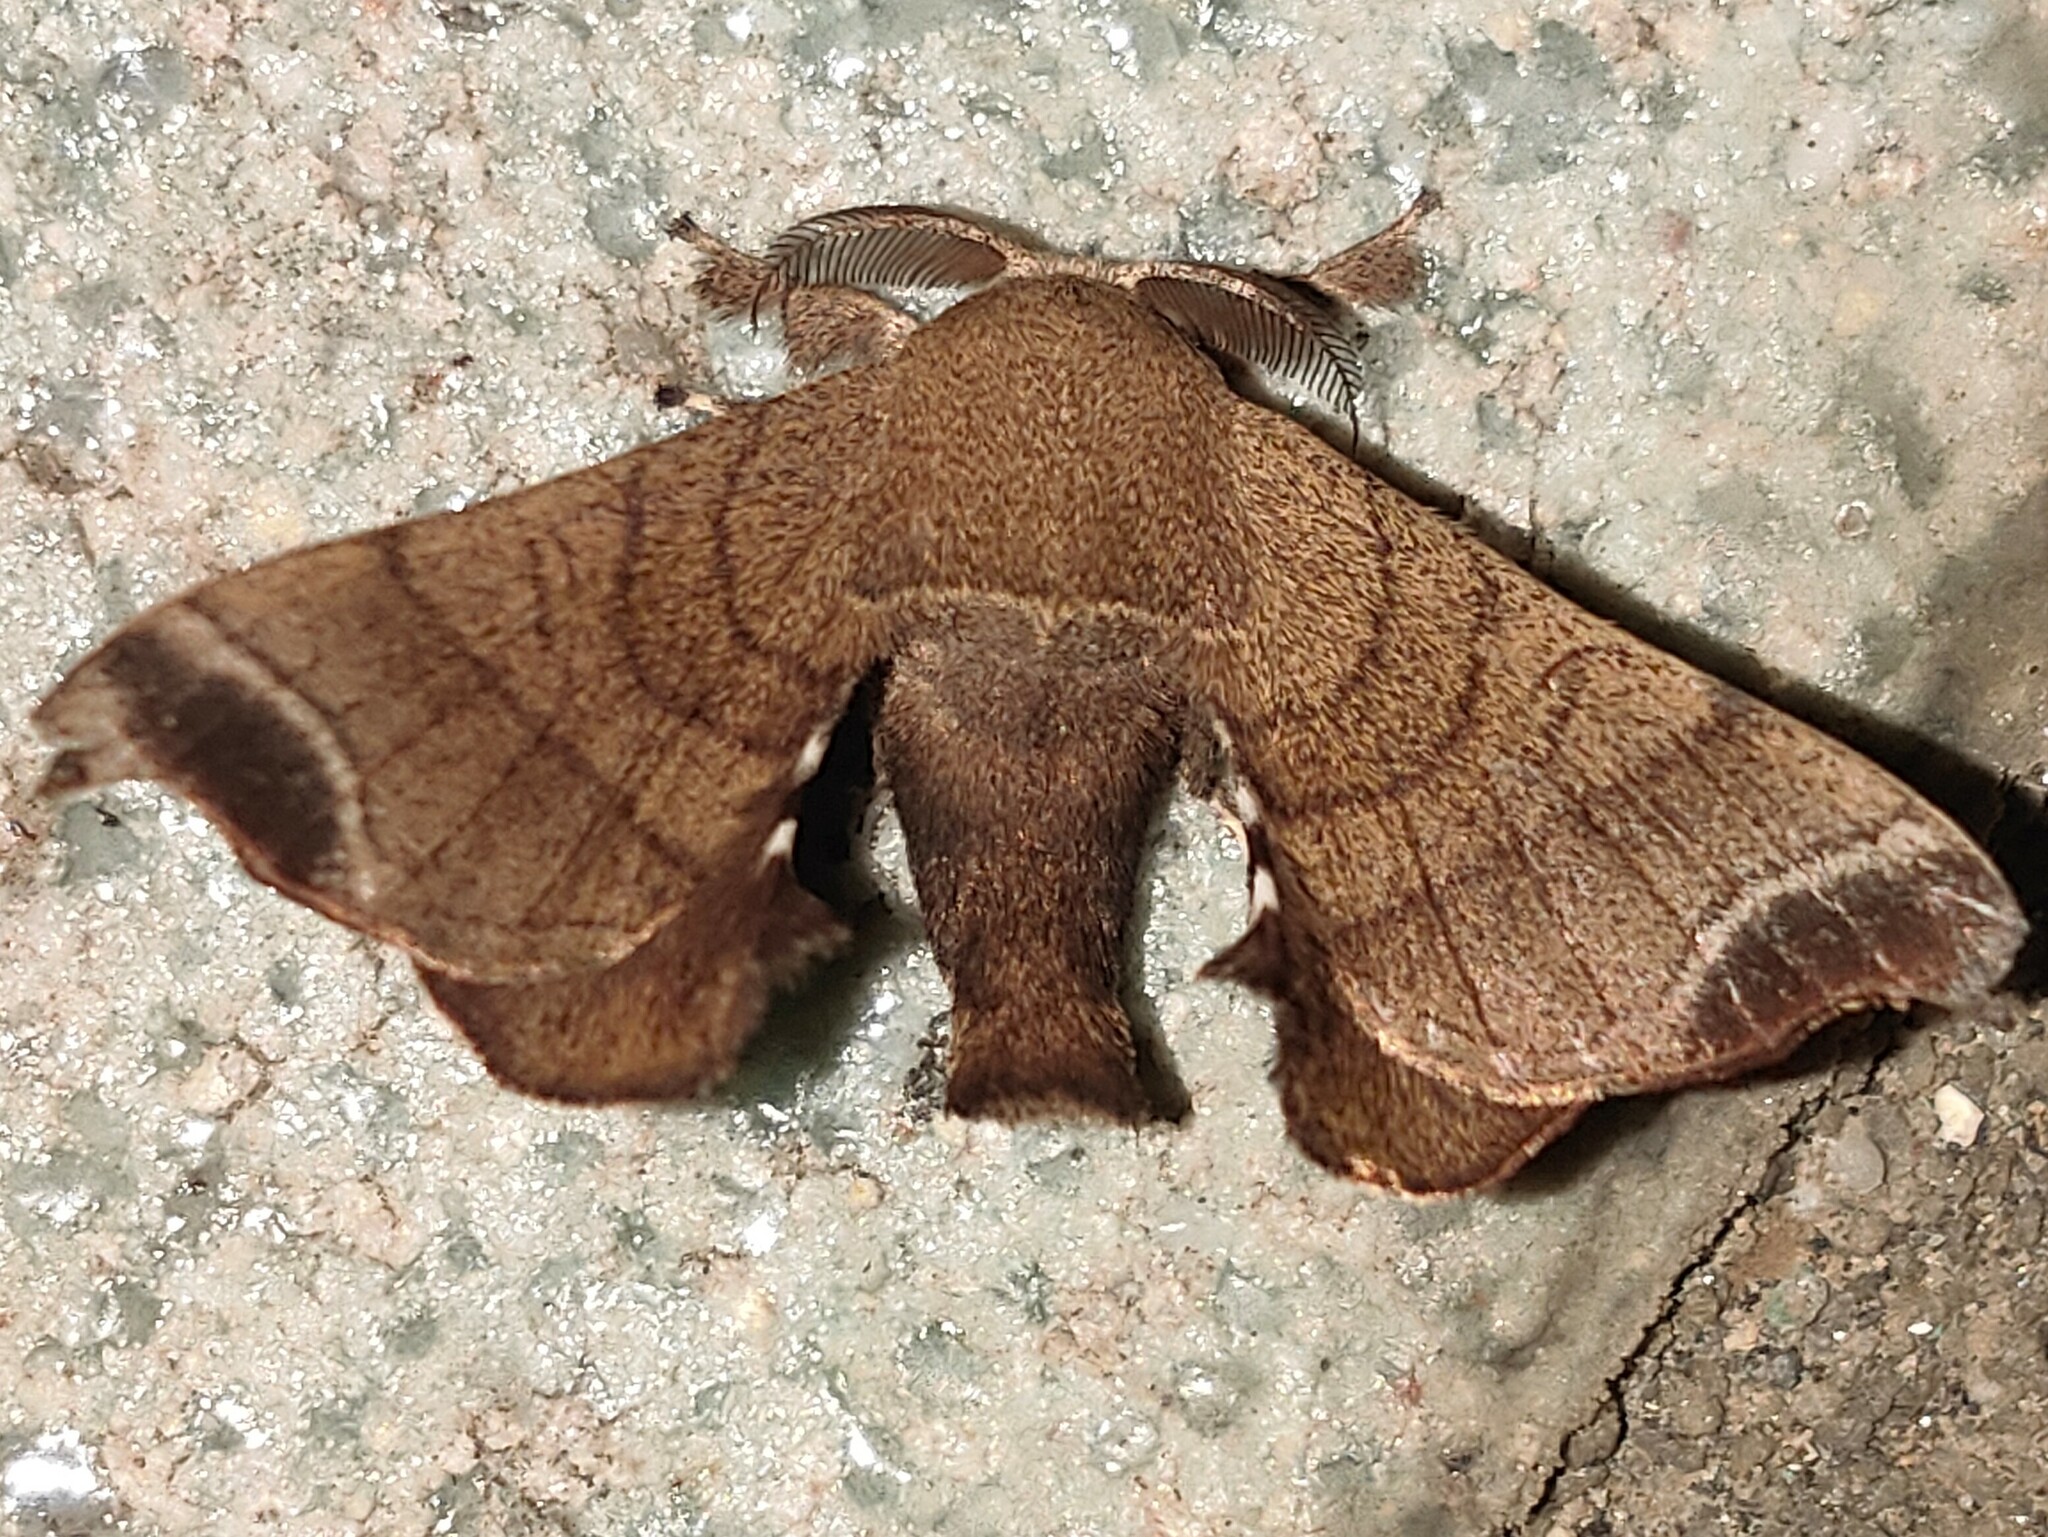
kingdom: Animalia
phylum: Arthropoda
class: Insecta
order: Lepidoptera
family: Bombycidae
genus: Bombyx
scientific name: Bombyx mandarina
